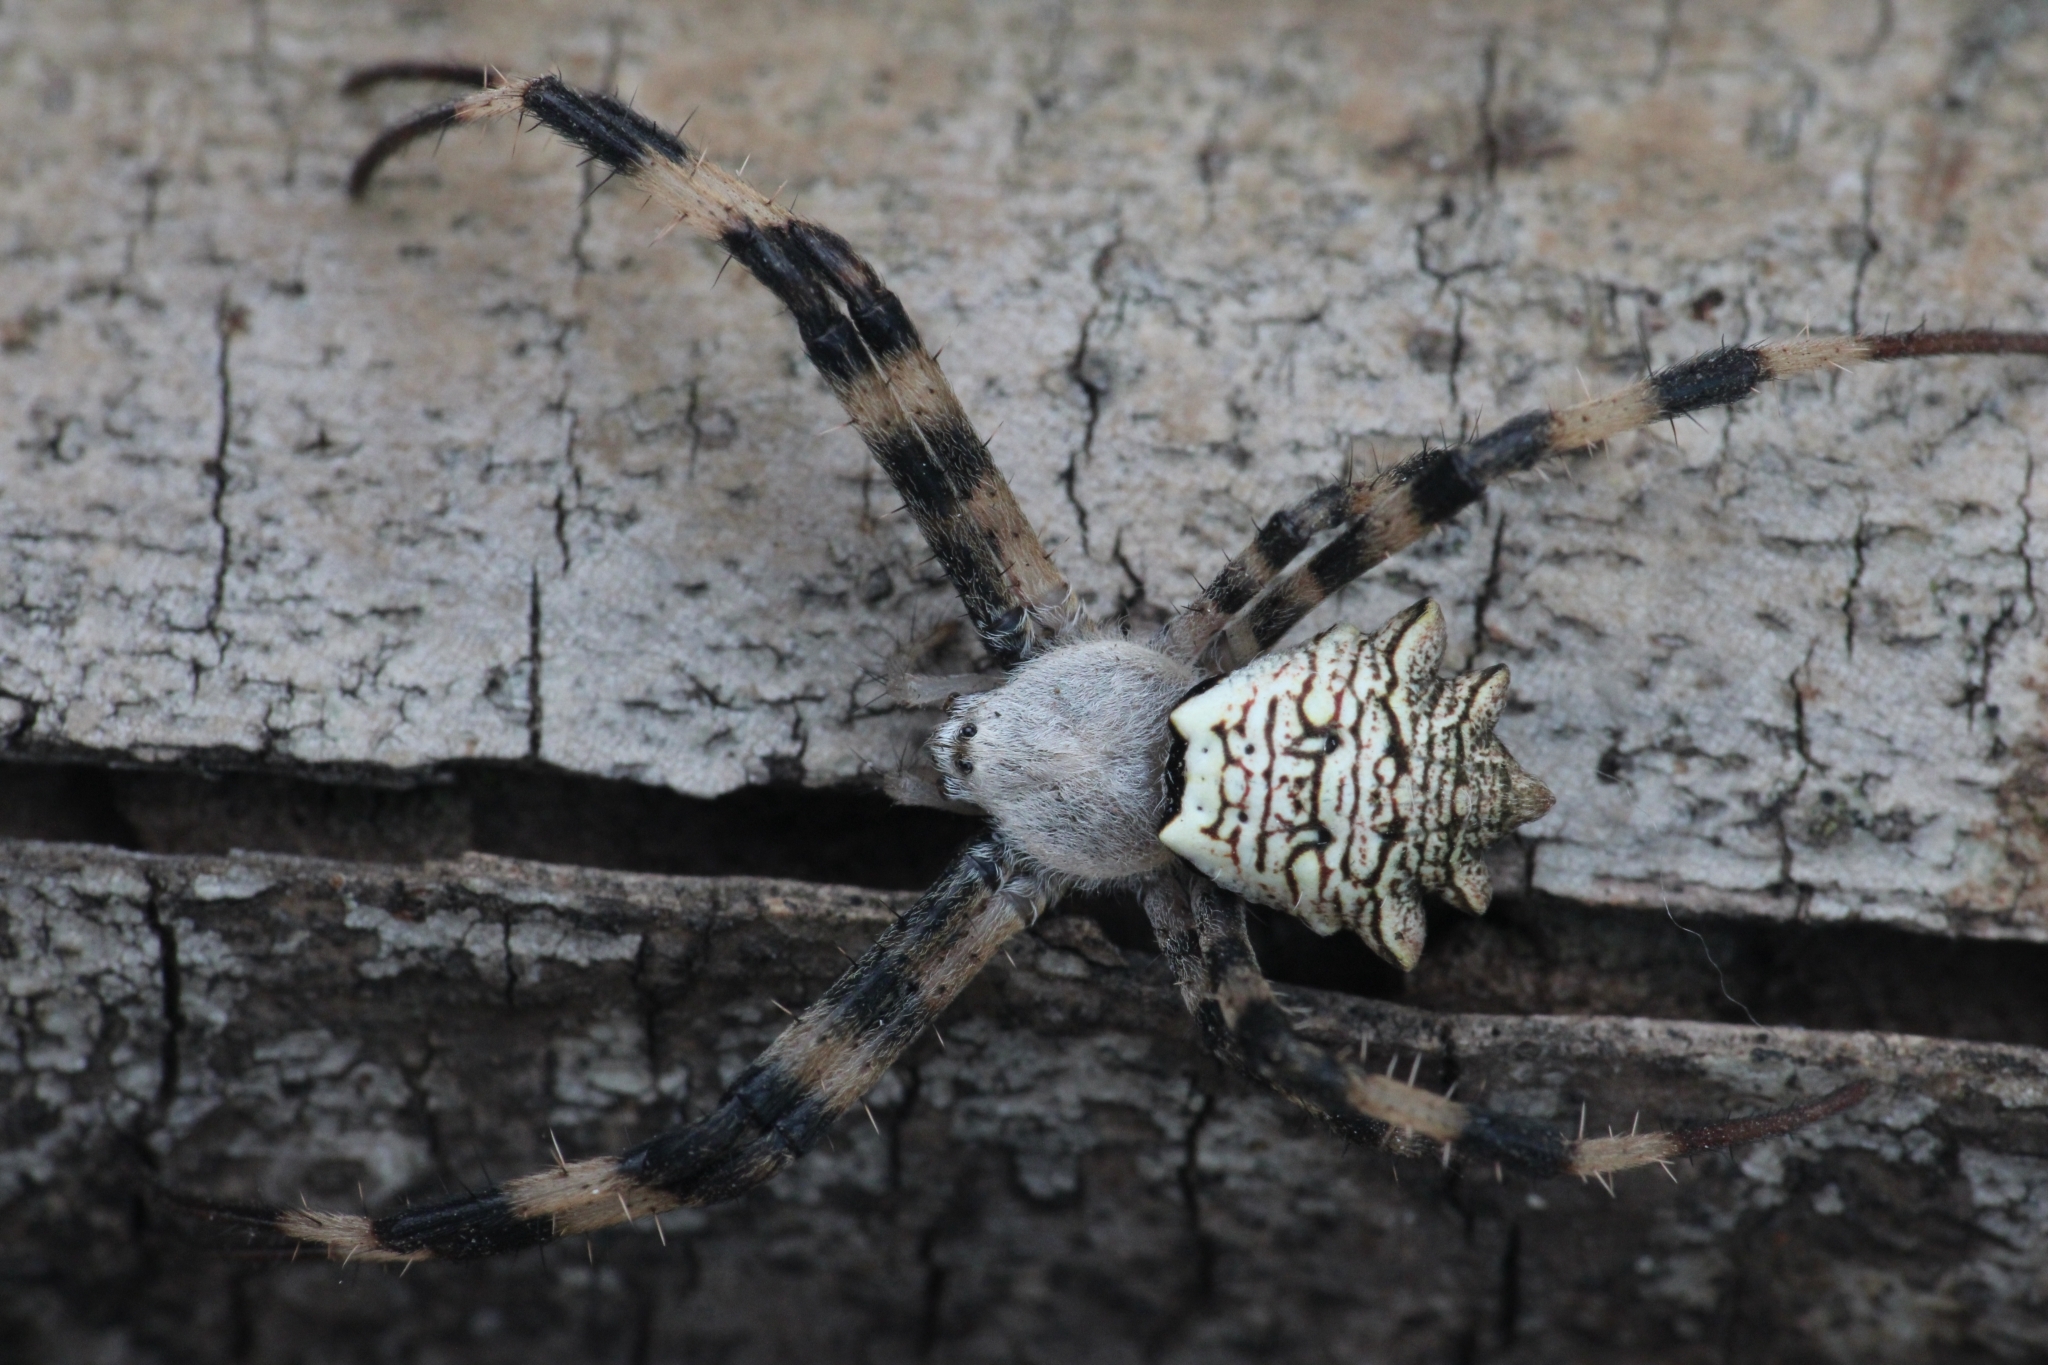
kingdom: Animalia
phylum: Arthropoda
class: Arachnida
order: Araneae
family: Araneidae
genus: Argiope
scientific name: Argiope
